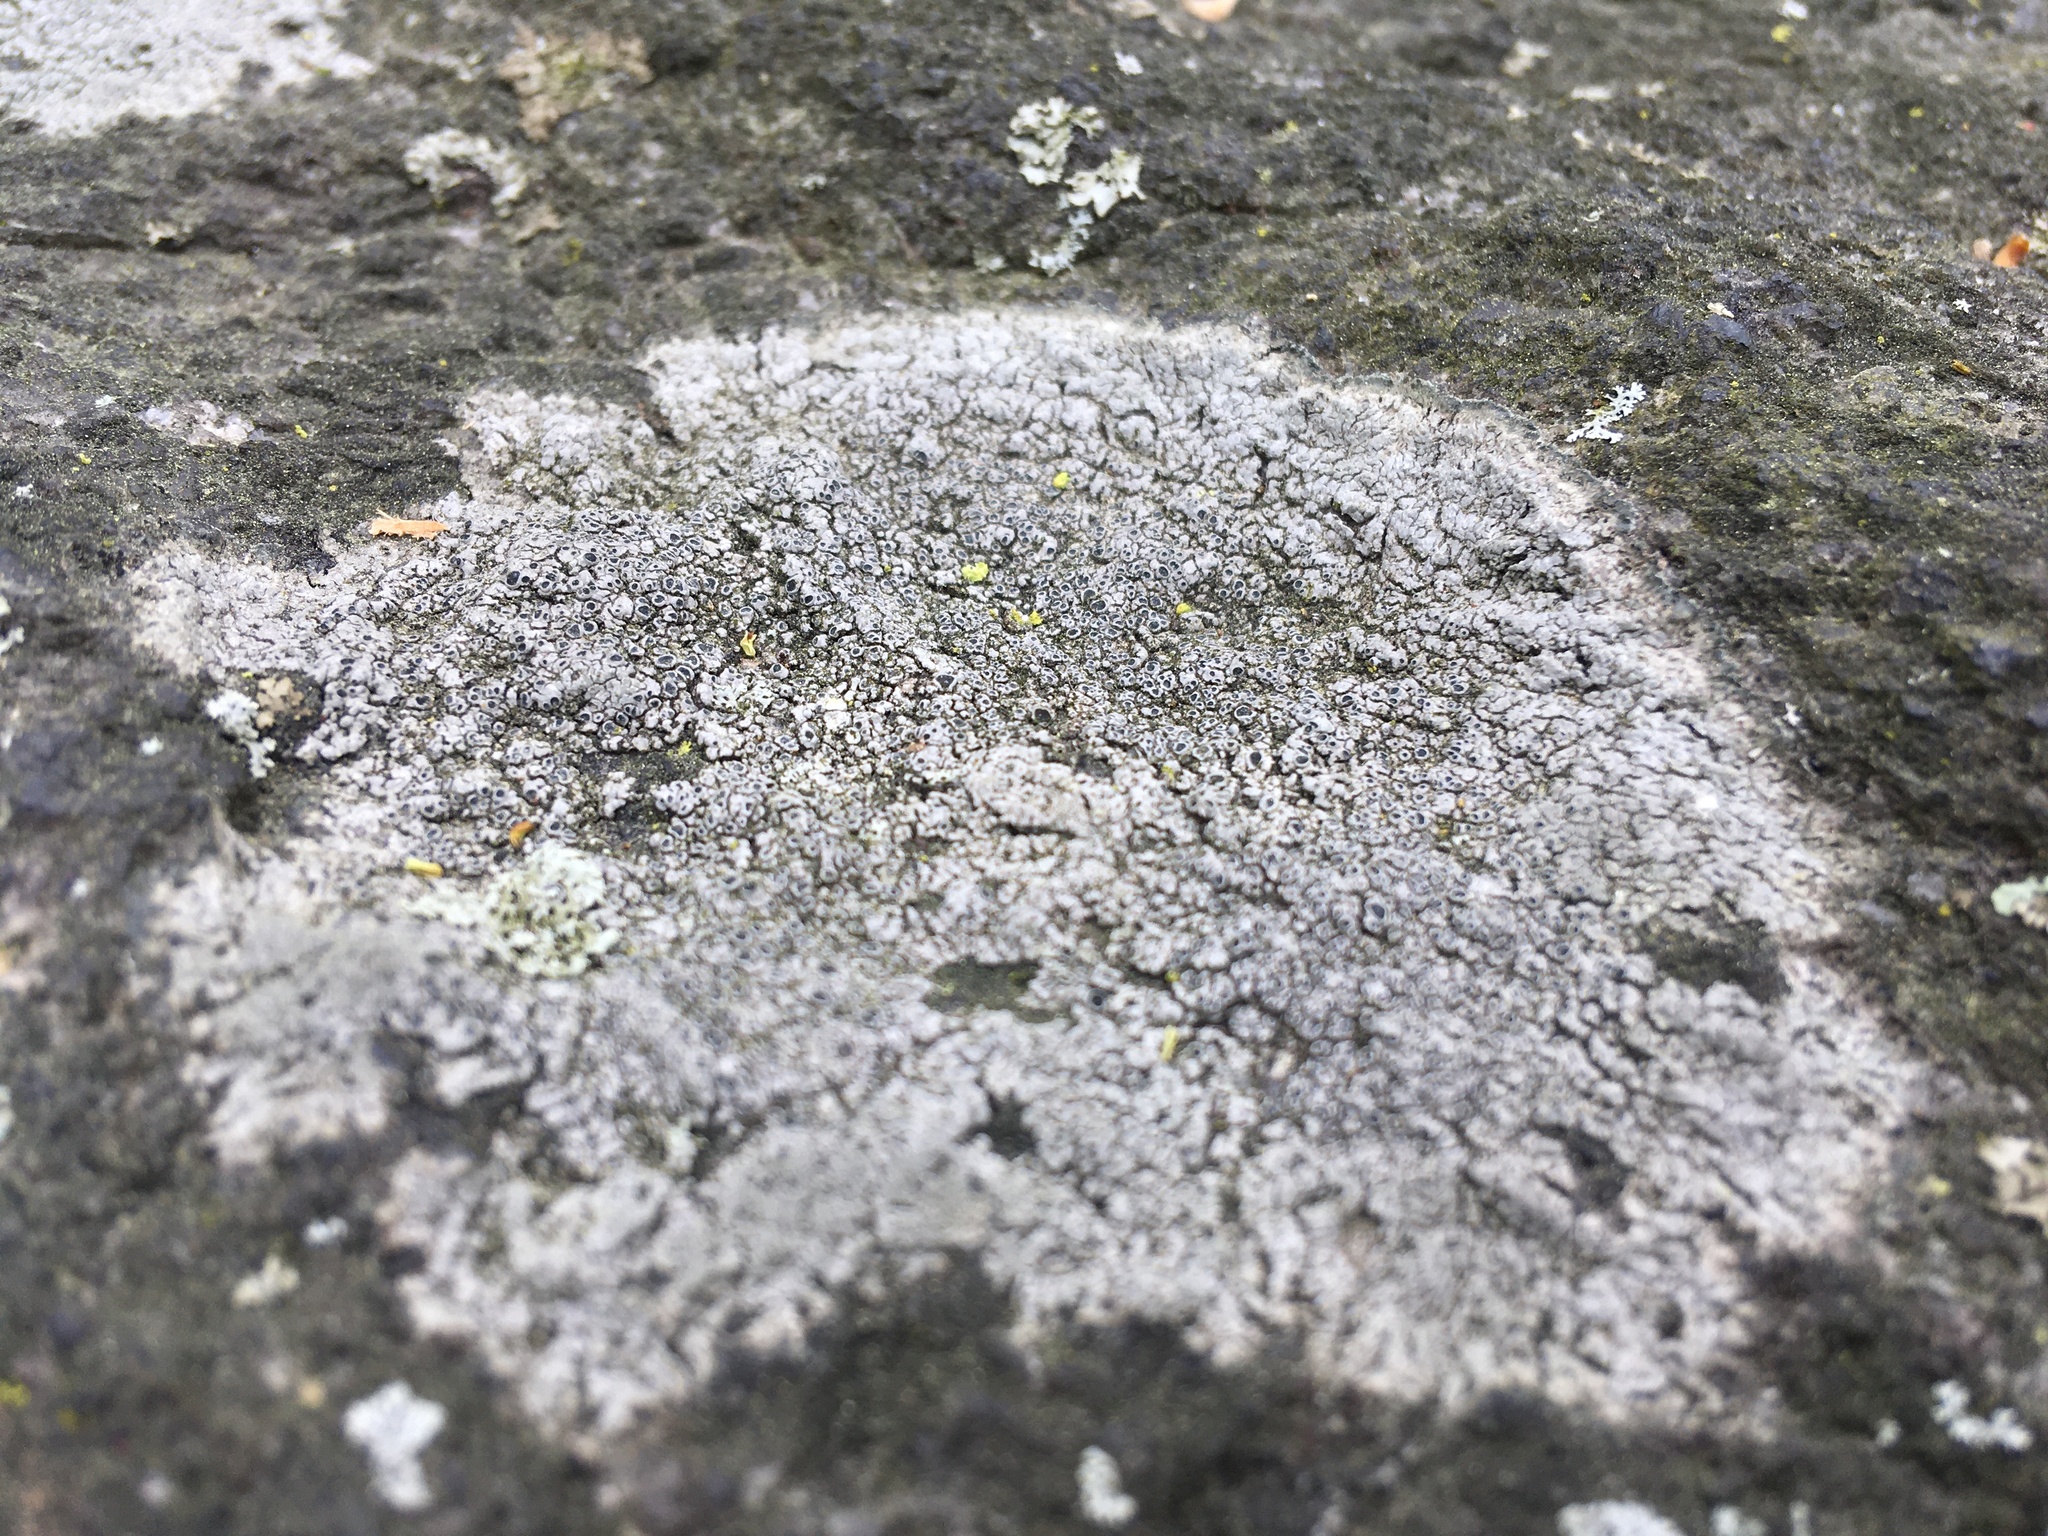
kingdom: Fungi
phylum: Ascomycota
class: Lecanoromycetes
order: Lecideales
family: Lecideaceae
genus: Porpidia
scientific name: Porpidia albocaerulescens
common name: Smokey-eyed boulder lichen
